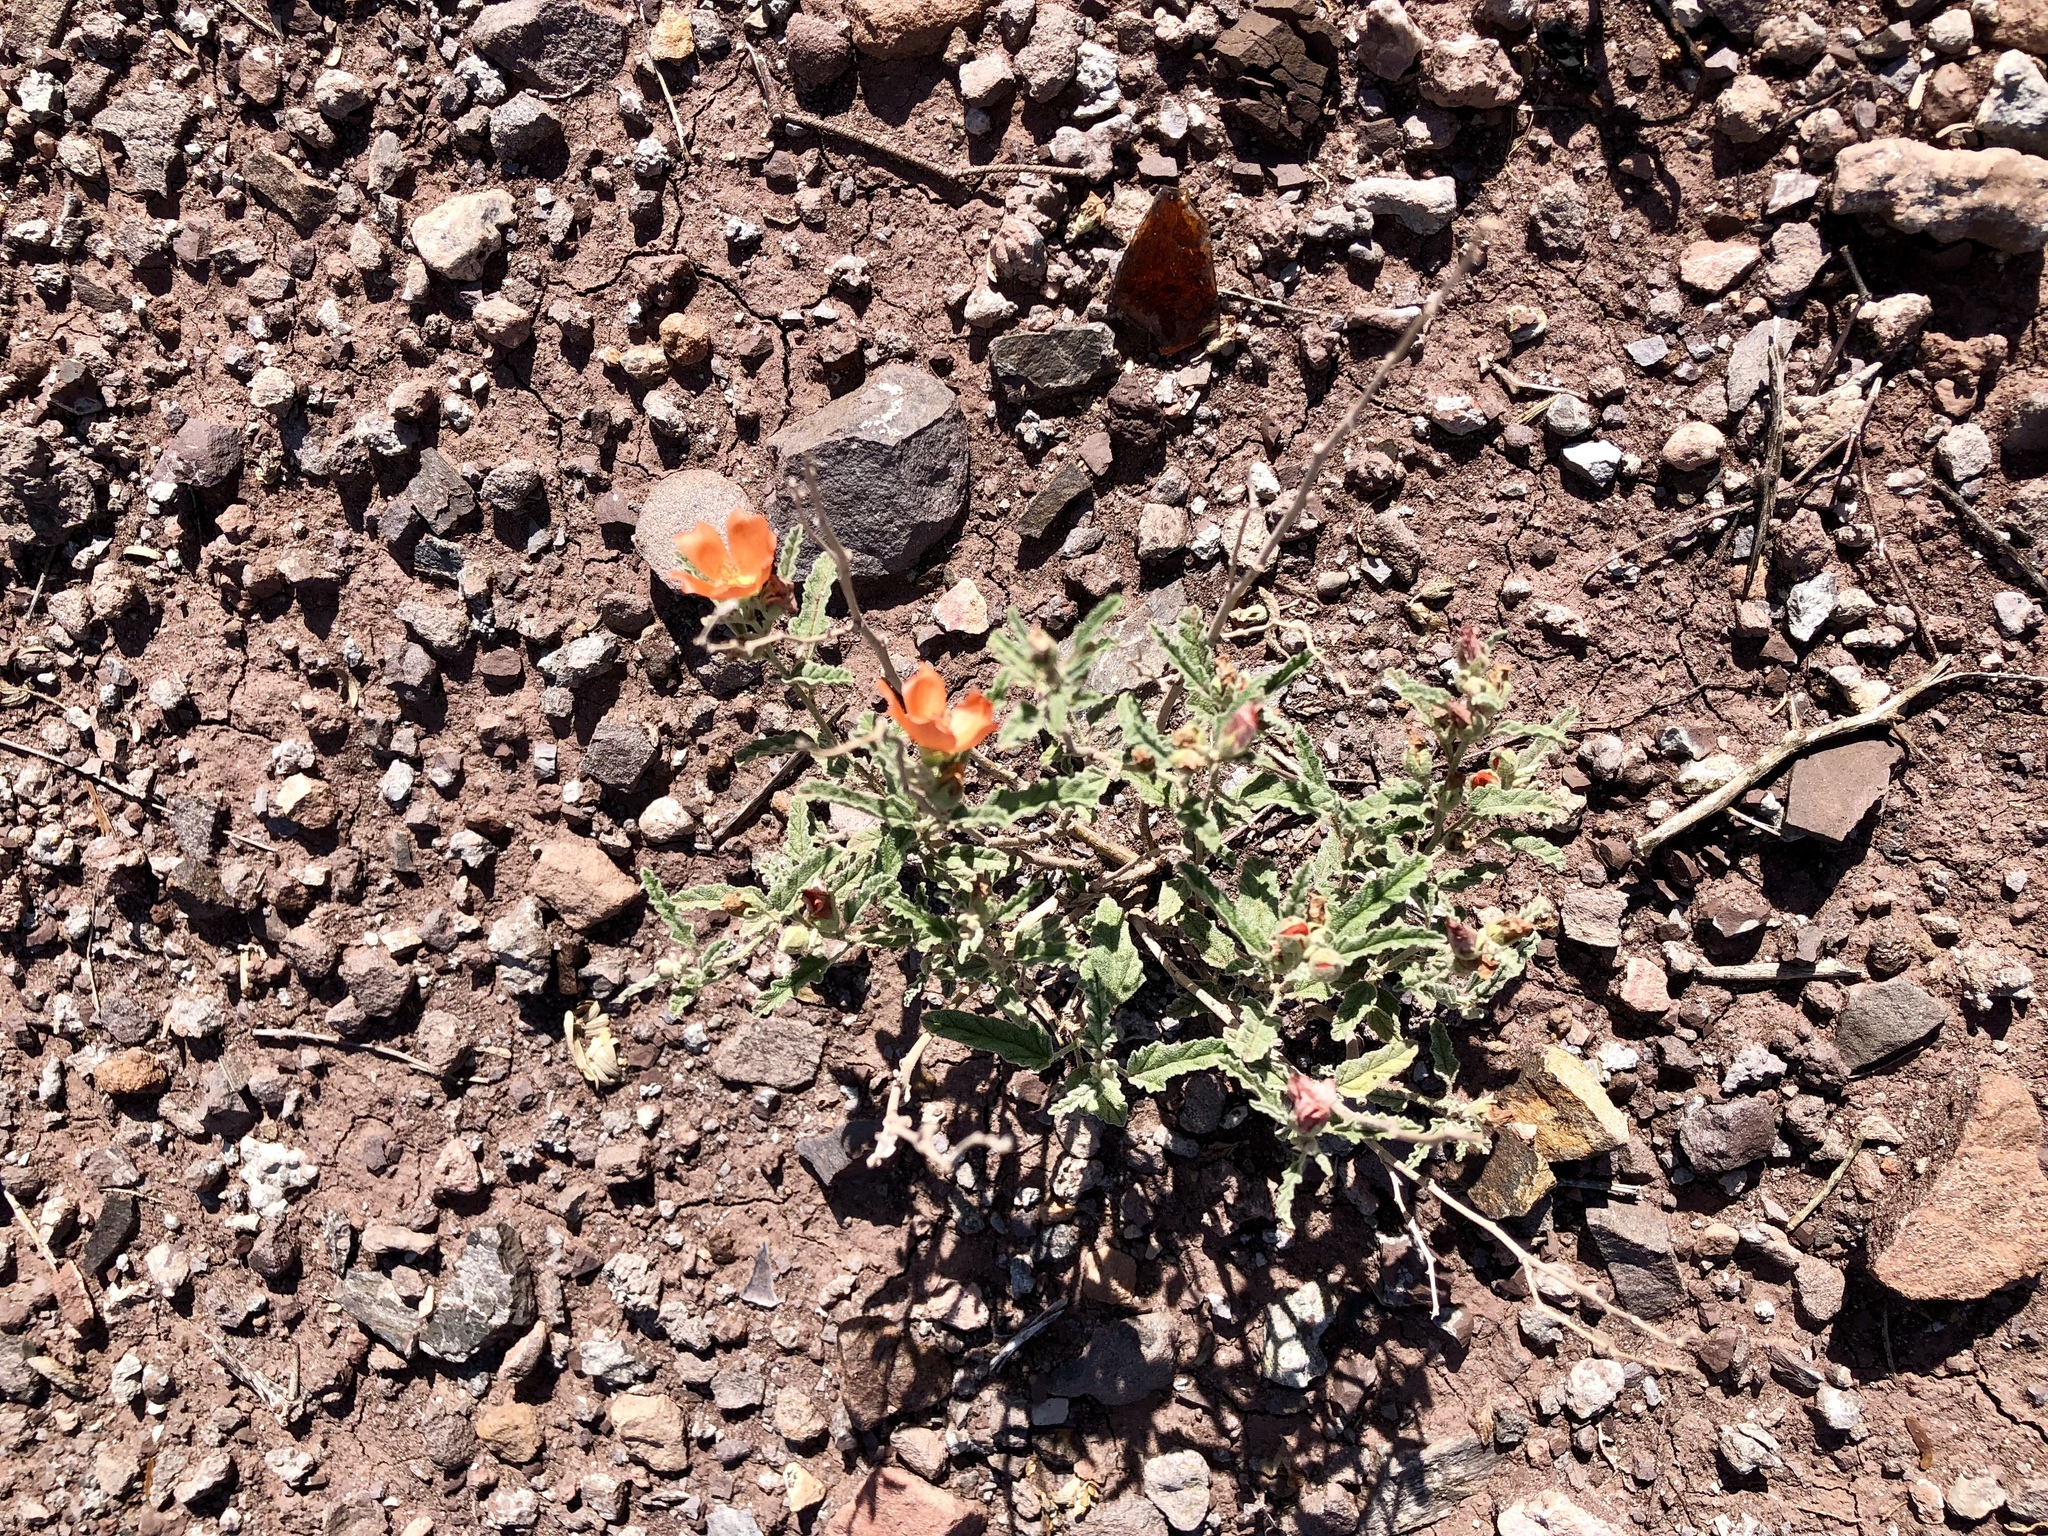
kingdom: Plantae
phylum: Tracheophyta
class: Magnoliopsida
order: Malvales
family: Malvaceae
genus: Sphaeralcea
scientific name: Sphaeralcea hastulata
